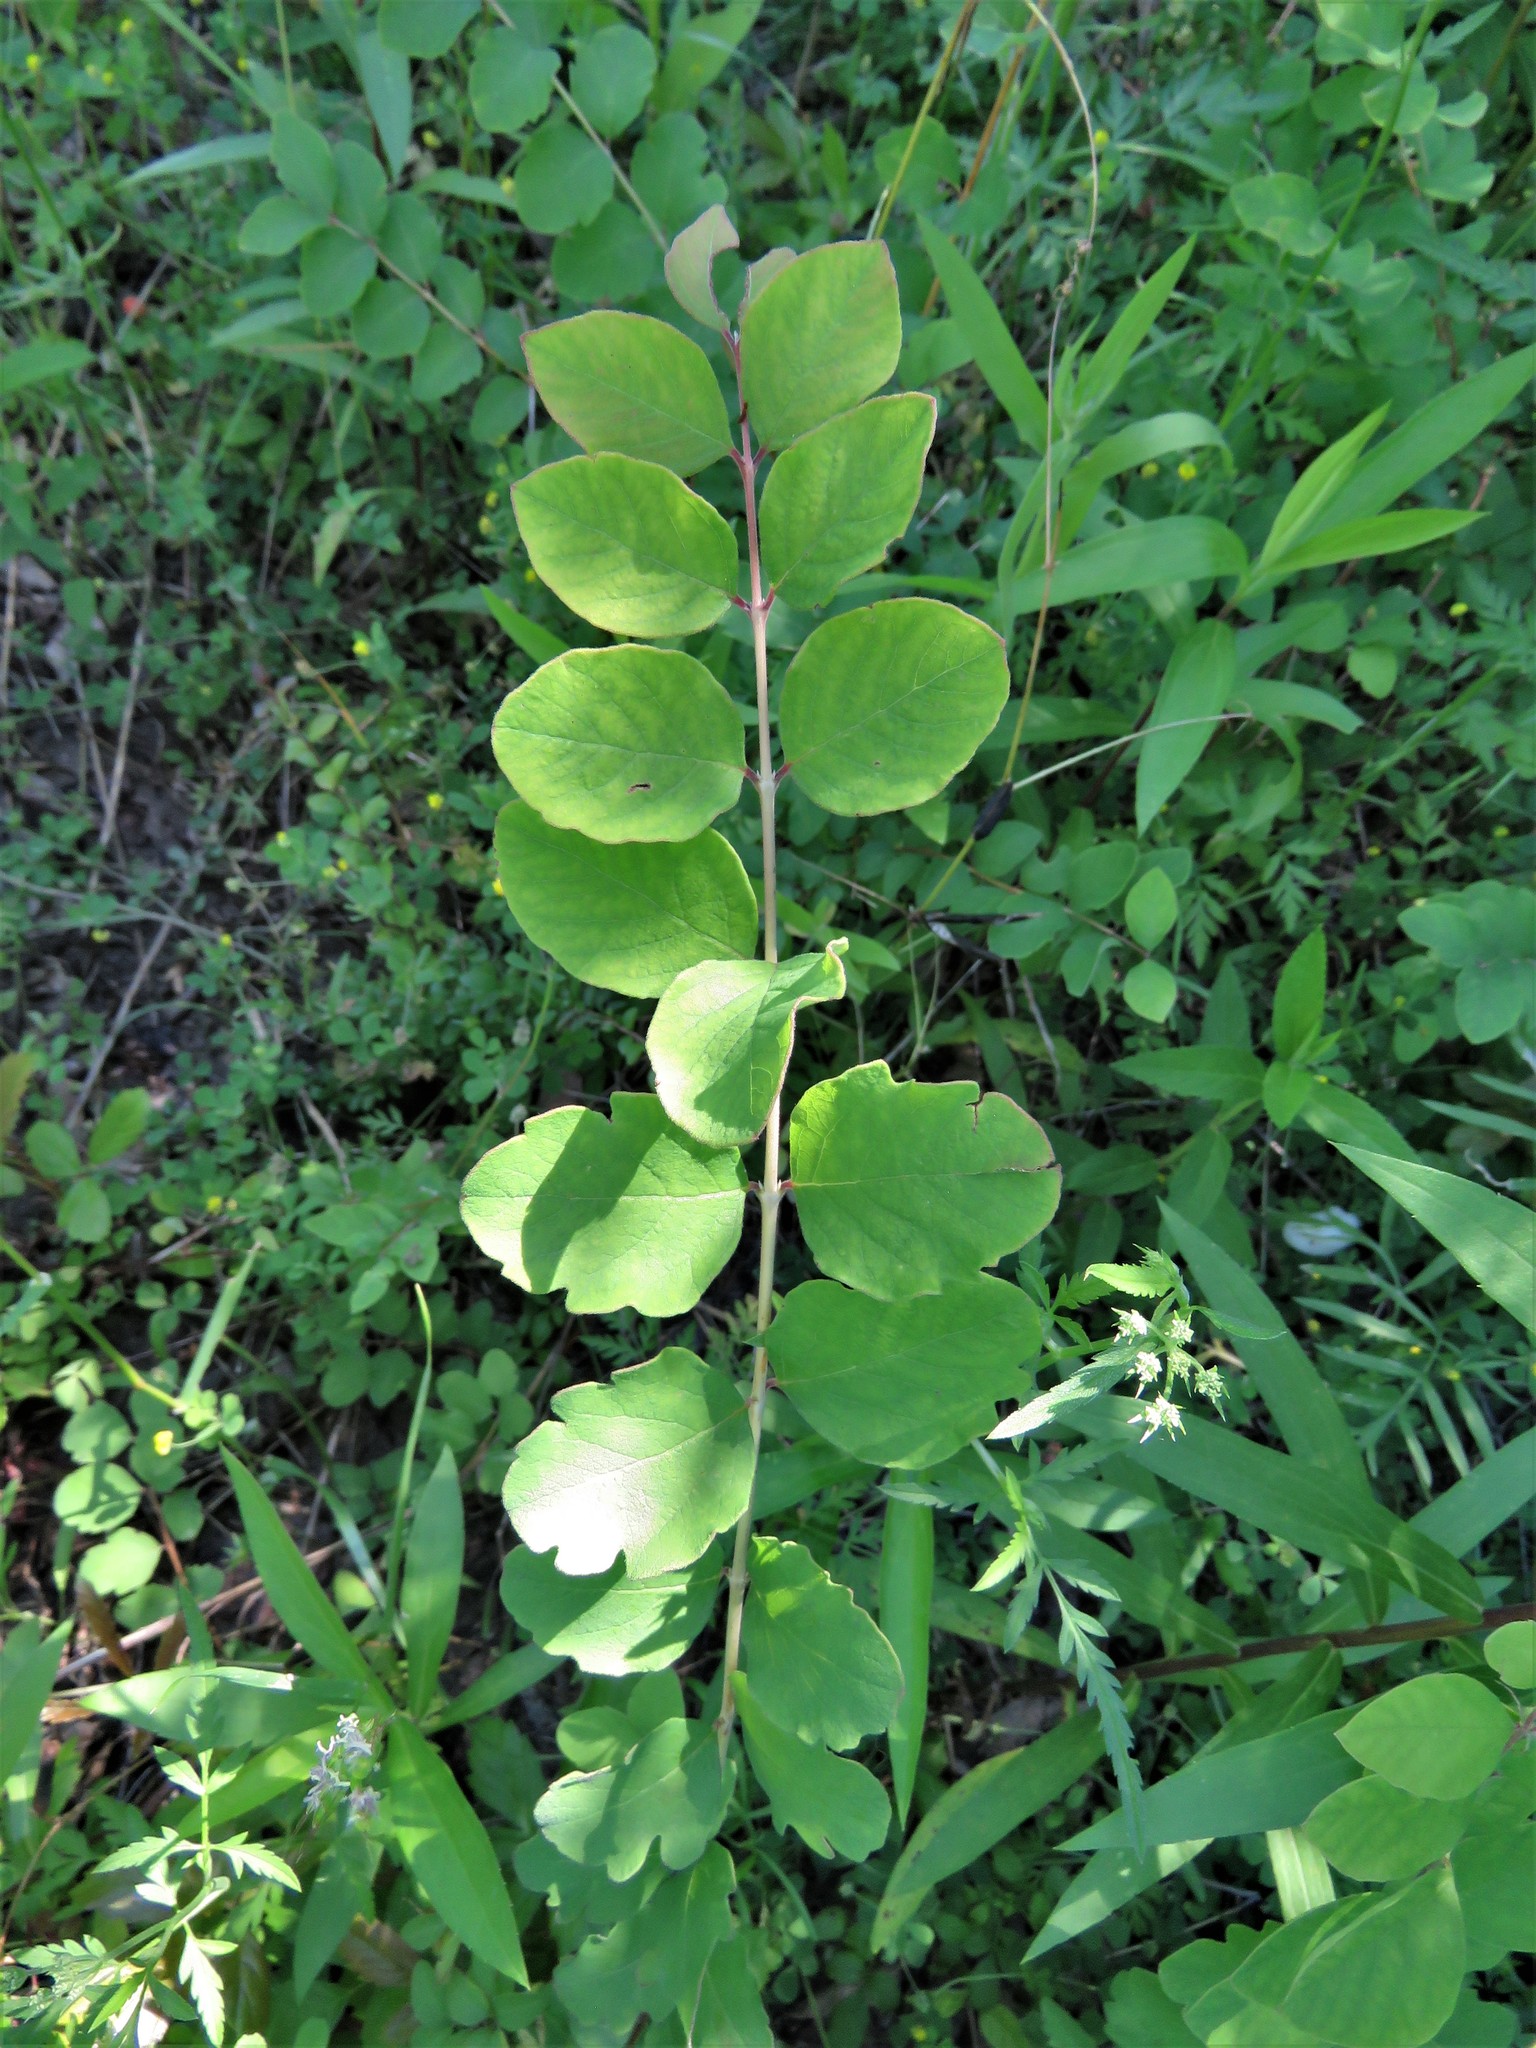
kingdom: Plantae
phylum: Tracheophyta
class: Magnoliopsida
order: Dipsacales
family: Caprifoliaceae
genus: Symphoricarpos
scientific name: Symphoricarpos orbiculatus
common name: Coralberry
